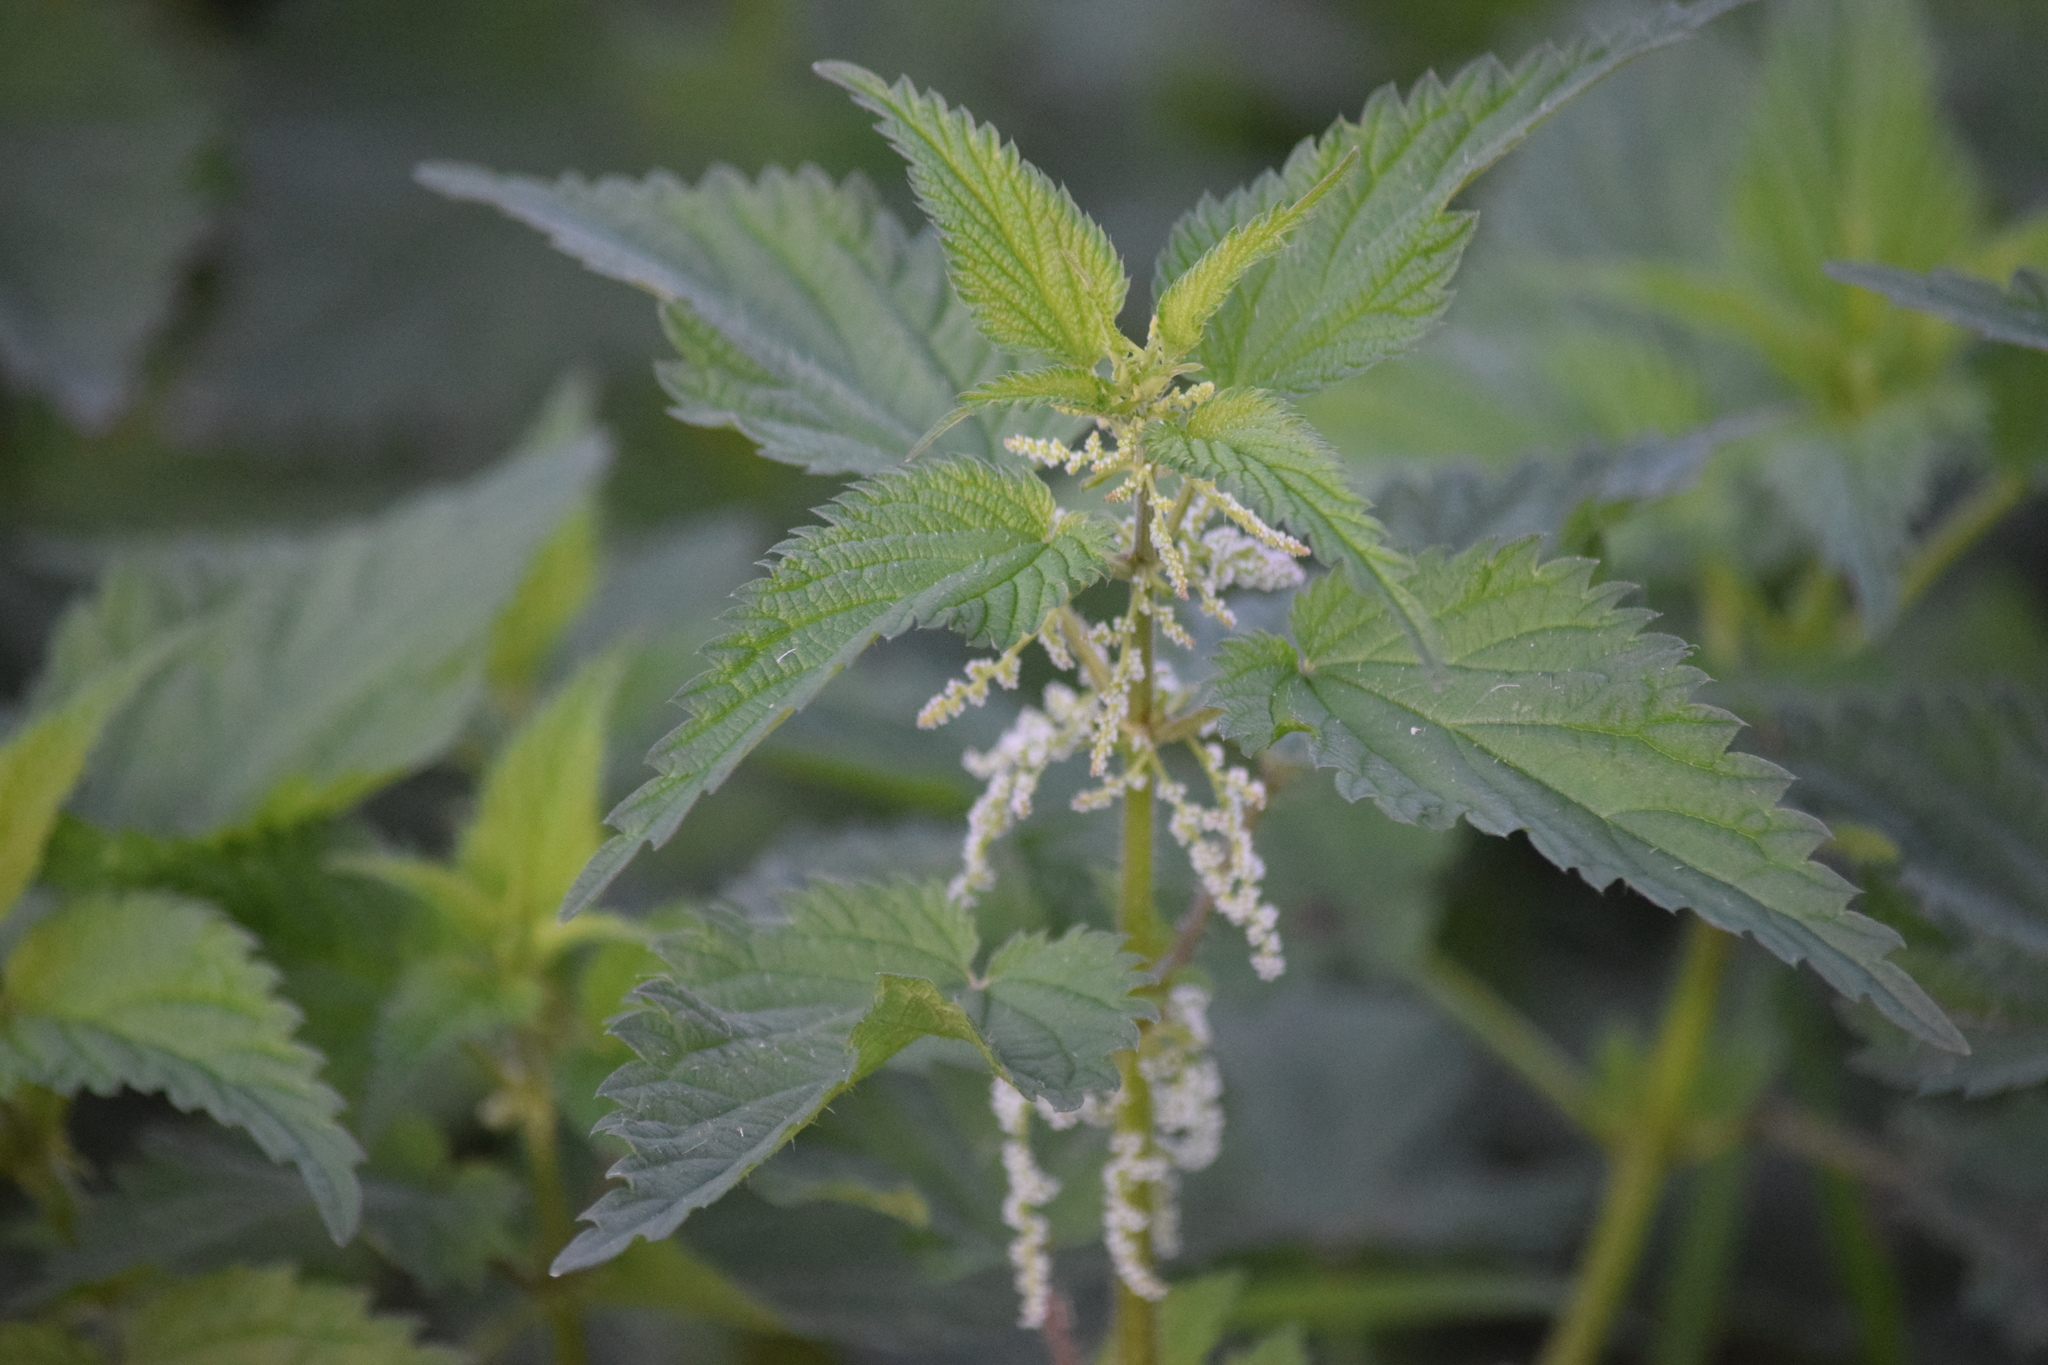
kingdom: Plantae
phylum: Tracheophyta
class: Magnoliopsida
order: Rosales
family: Urticaceae
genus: Urtica
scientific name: Urtica dioica
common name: Common nettle
